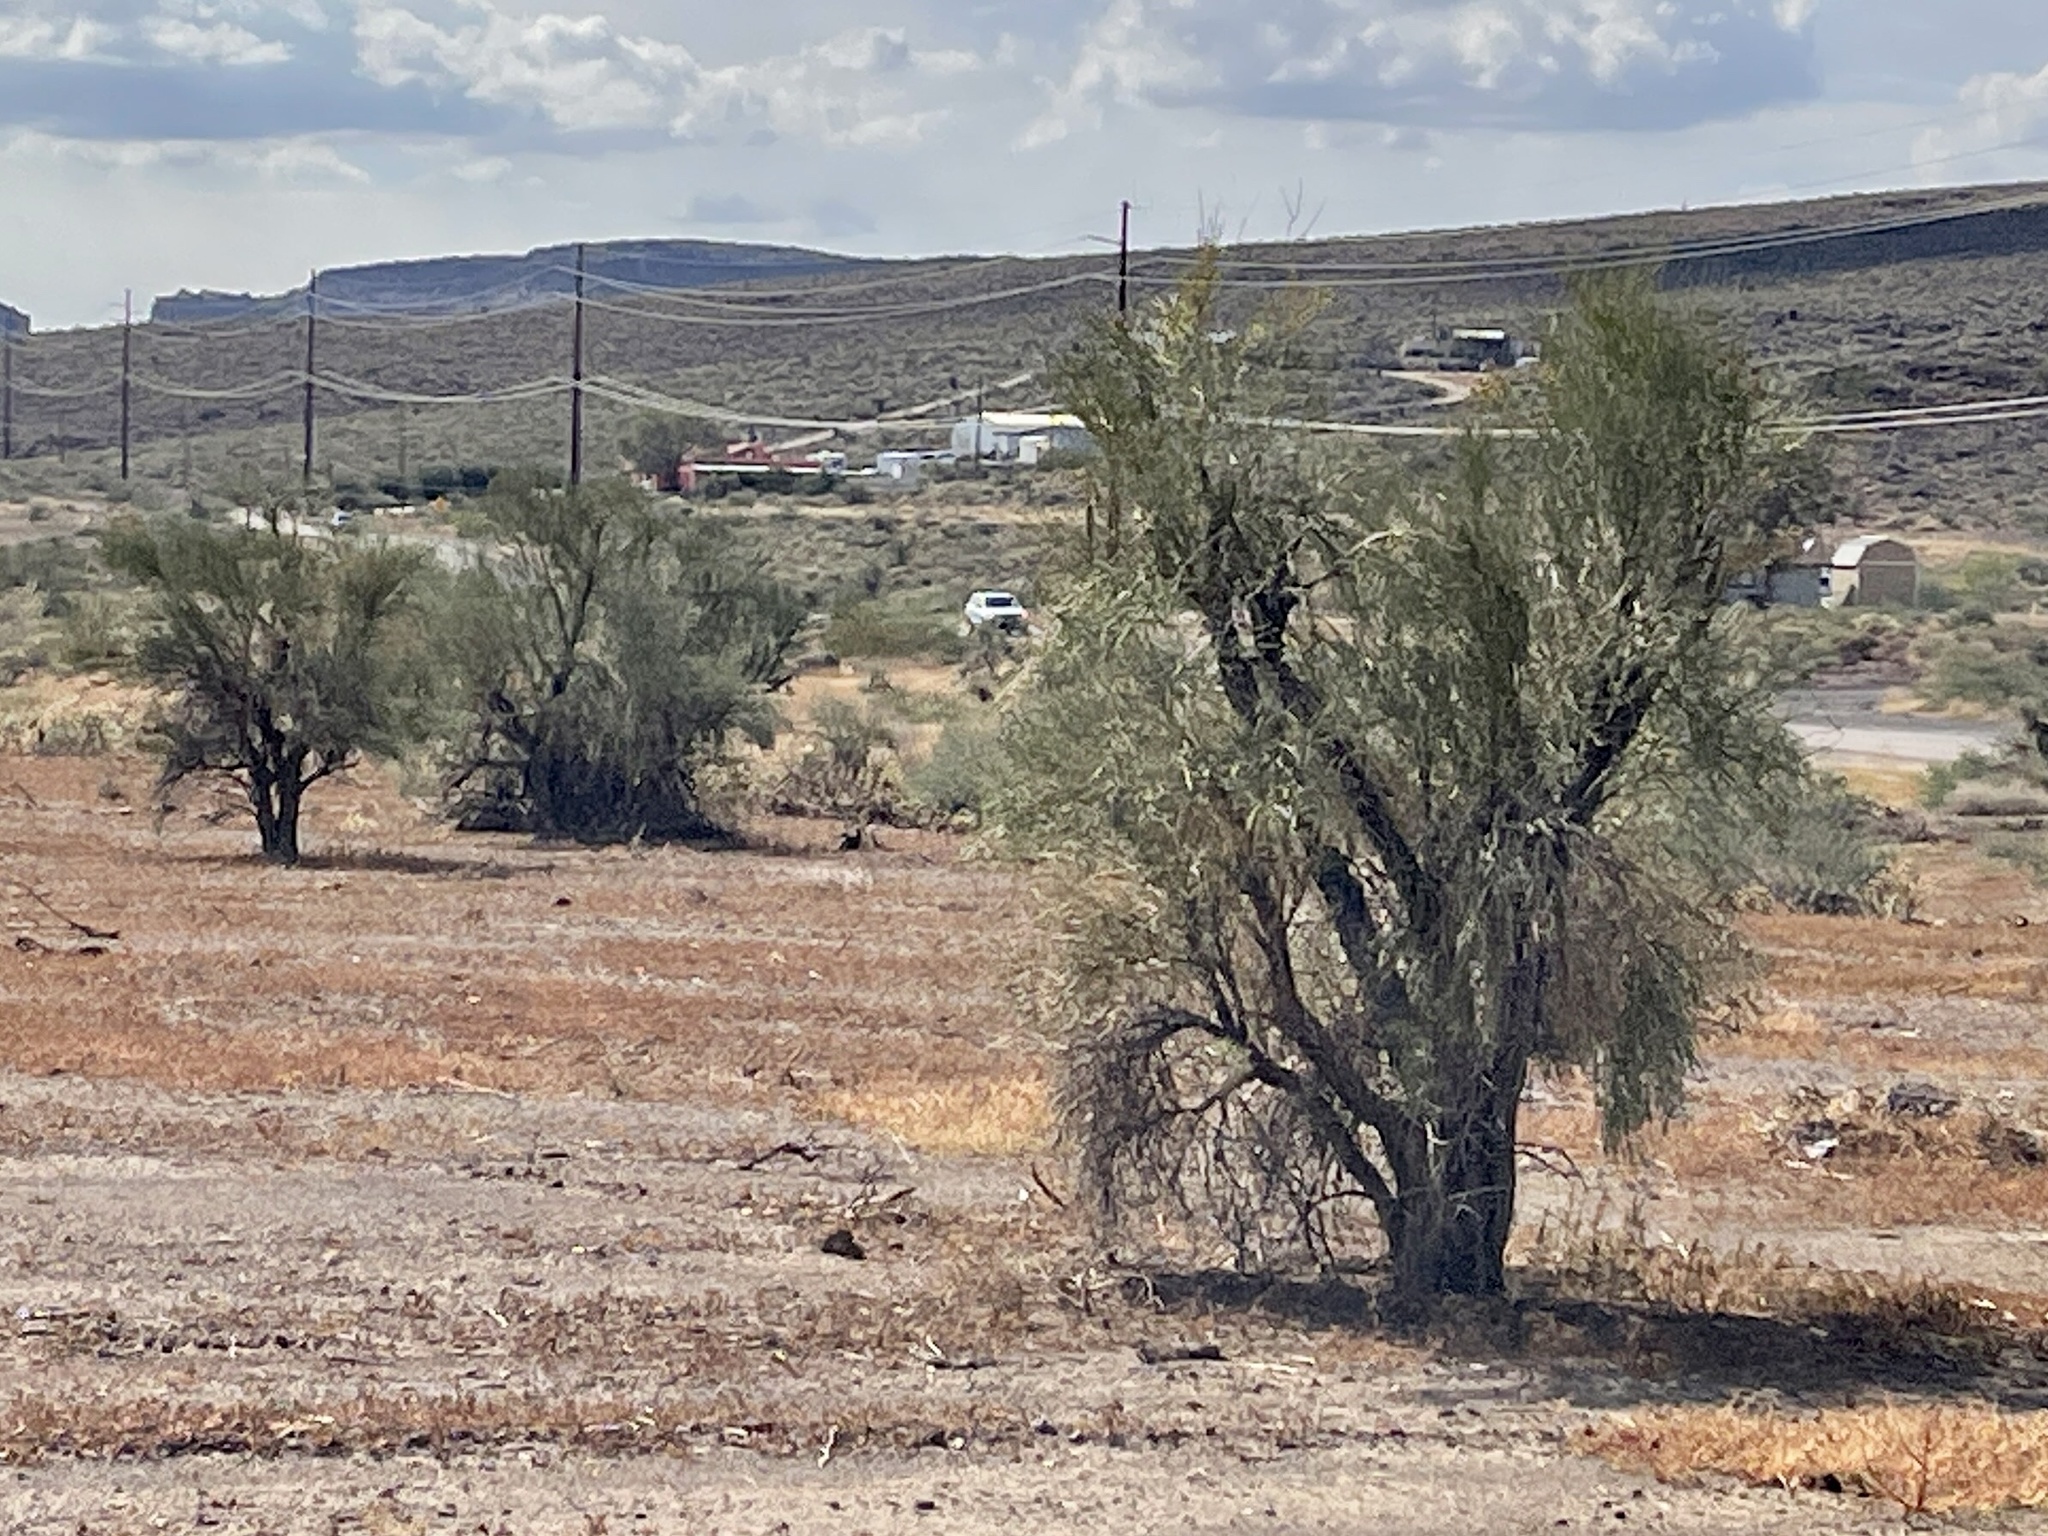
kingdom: Plantae
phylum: Tracheophyta
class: Magnoliopsida
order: Celastrales
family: Celastraceae
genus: Canotia
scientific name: Canotia holacantha
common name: Crucifixion thorns
